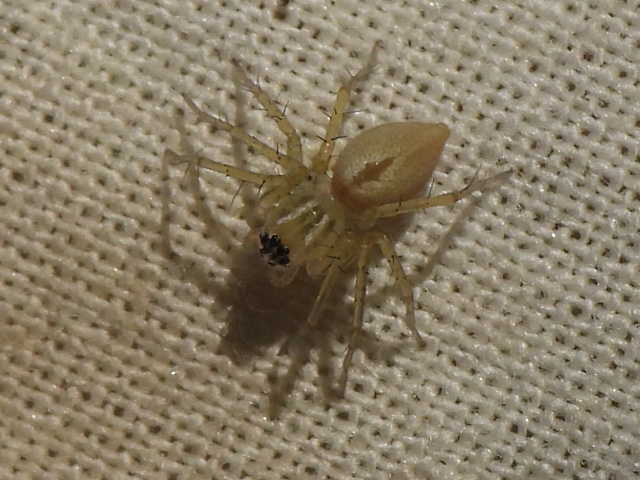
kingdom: Animalia
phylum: Arthropoda
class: Arachnida
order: Araneae
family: Oxyopidae
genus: Oxyopes
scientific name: Oxyopes salticus
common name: Lynx spiders
